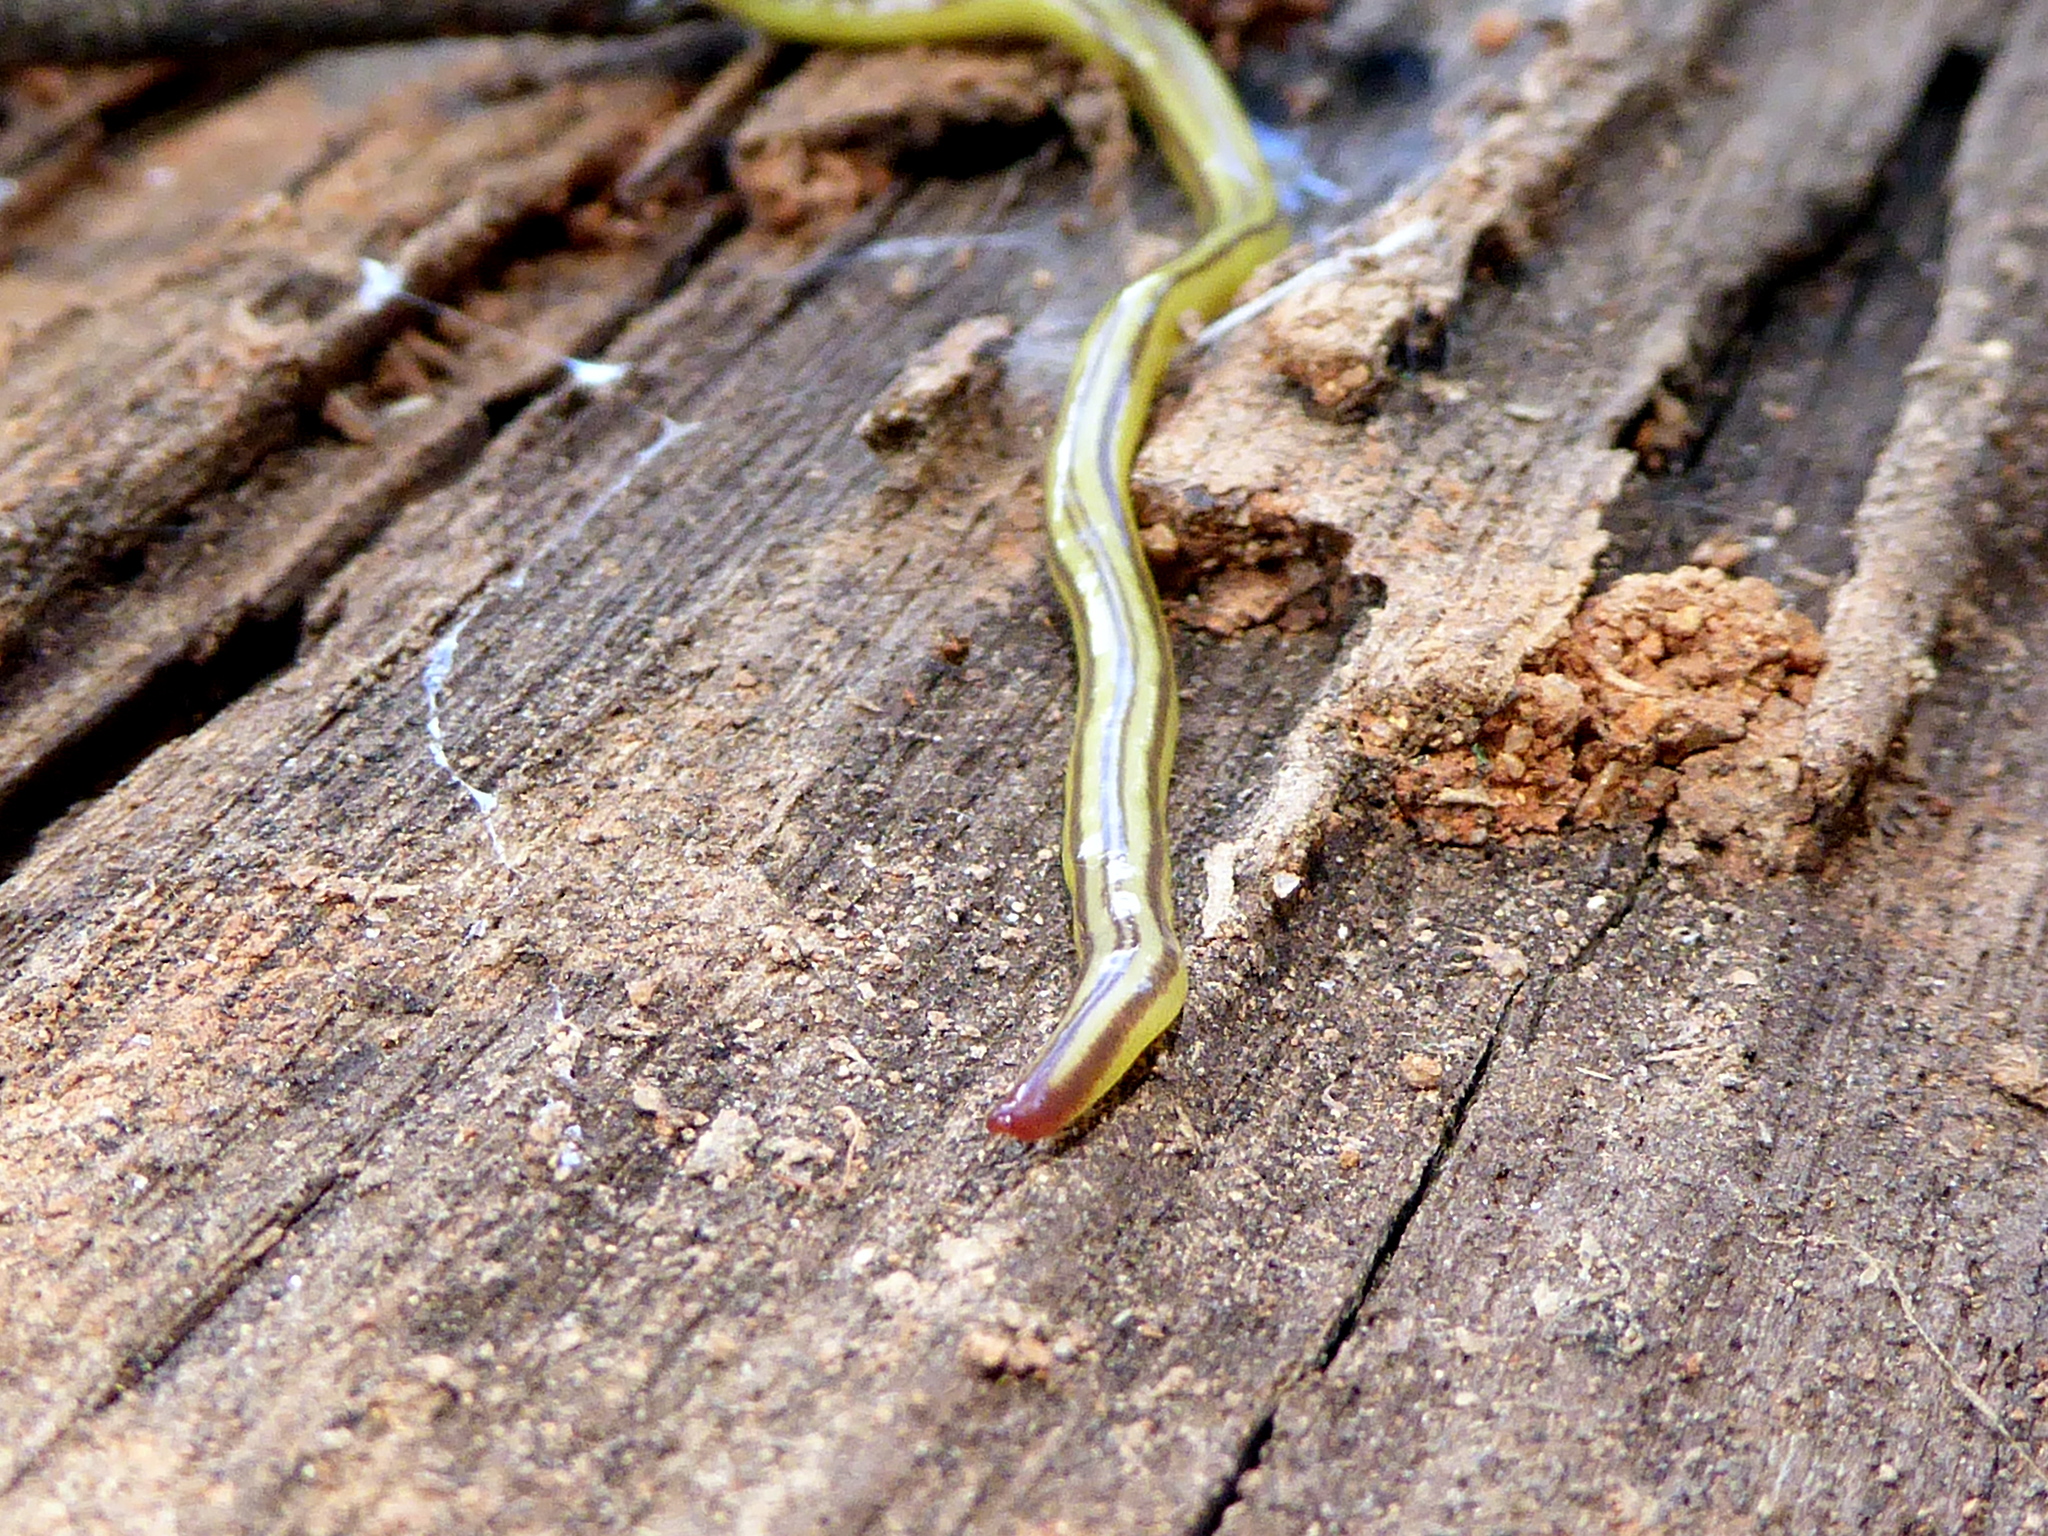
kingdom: Animalia
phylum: Platyhelminthes
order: Tricladida
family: Geoplanidae
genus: Caenoplana
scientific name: Caenoplana sulphurea
